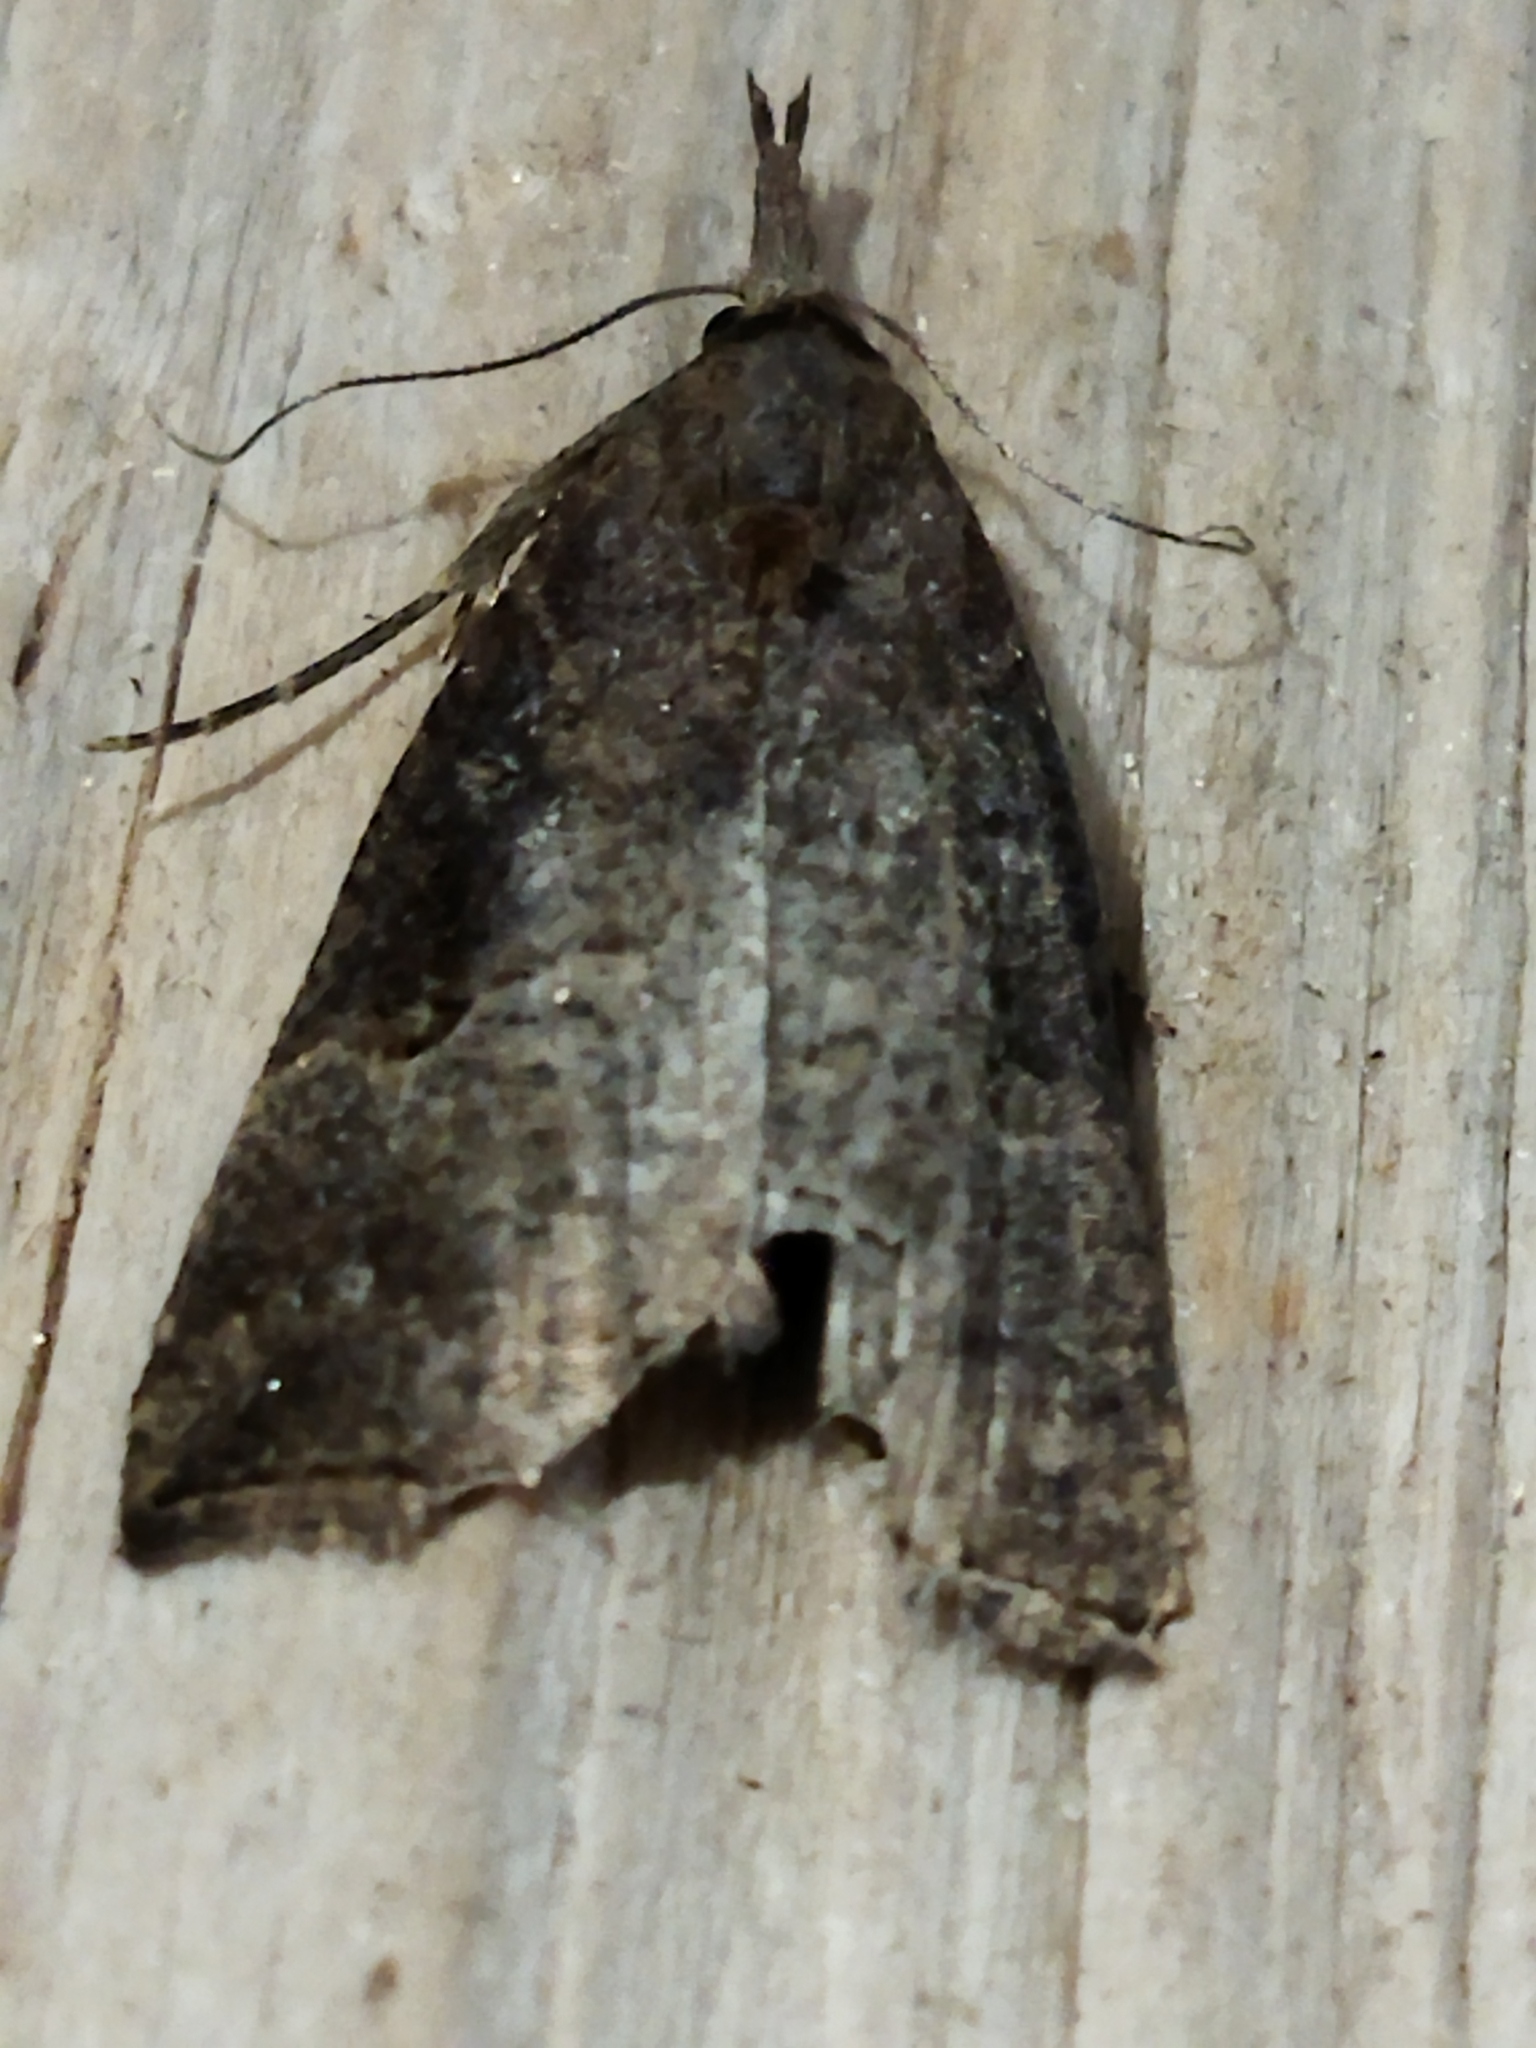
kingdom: Animalia
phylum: Arthropoda
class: Insecta
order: Lepidoptera
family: Erebidae
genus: Hypena
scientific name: Hypena rostralis
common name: Buttoned snout
